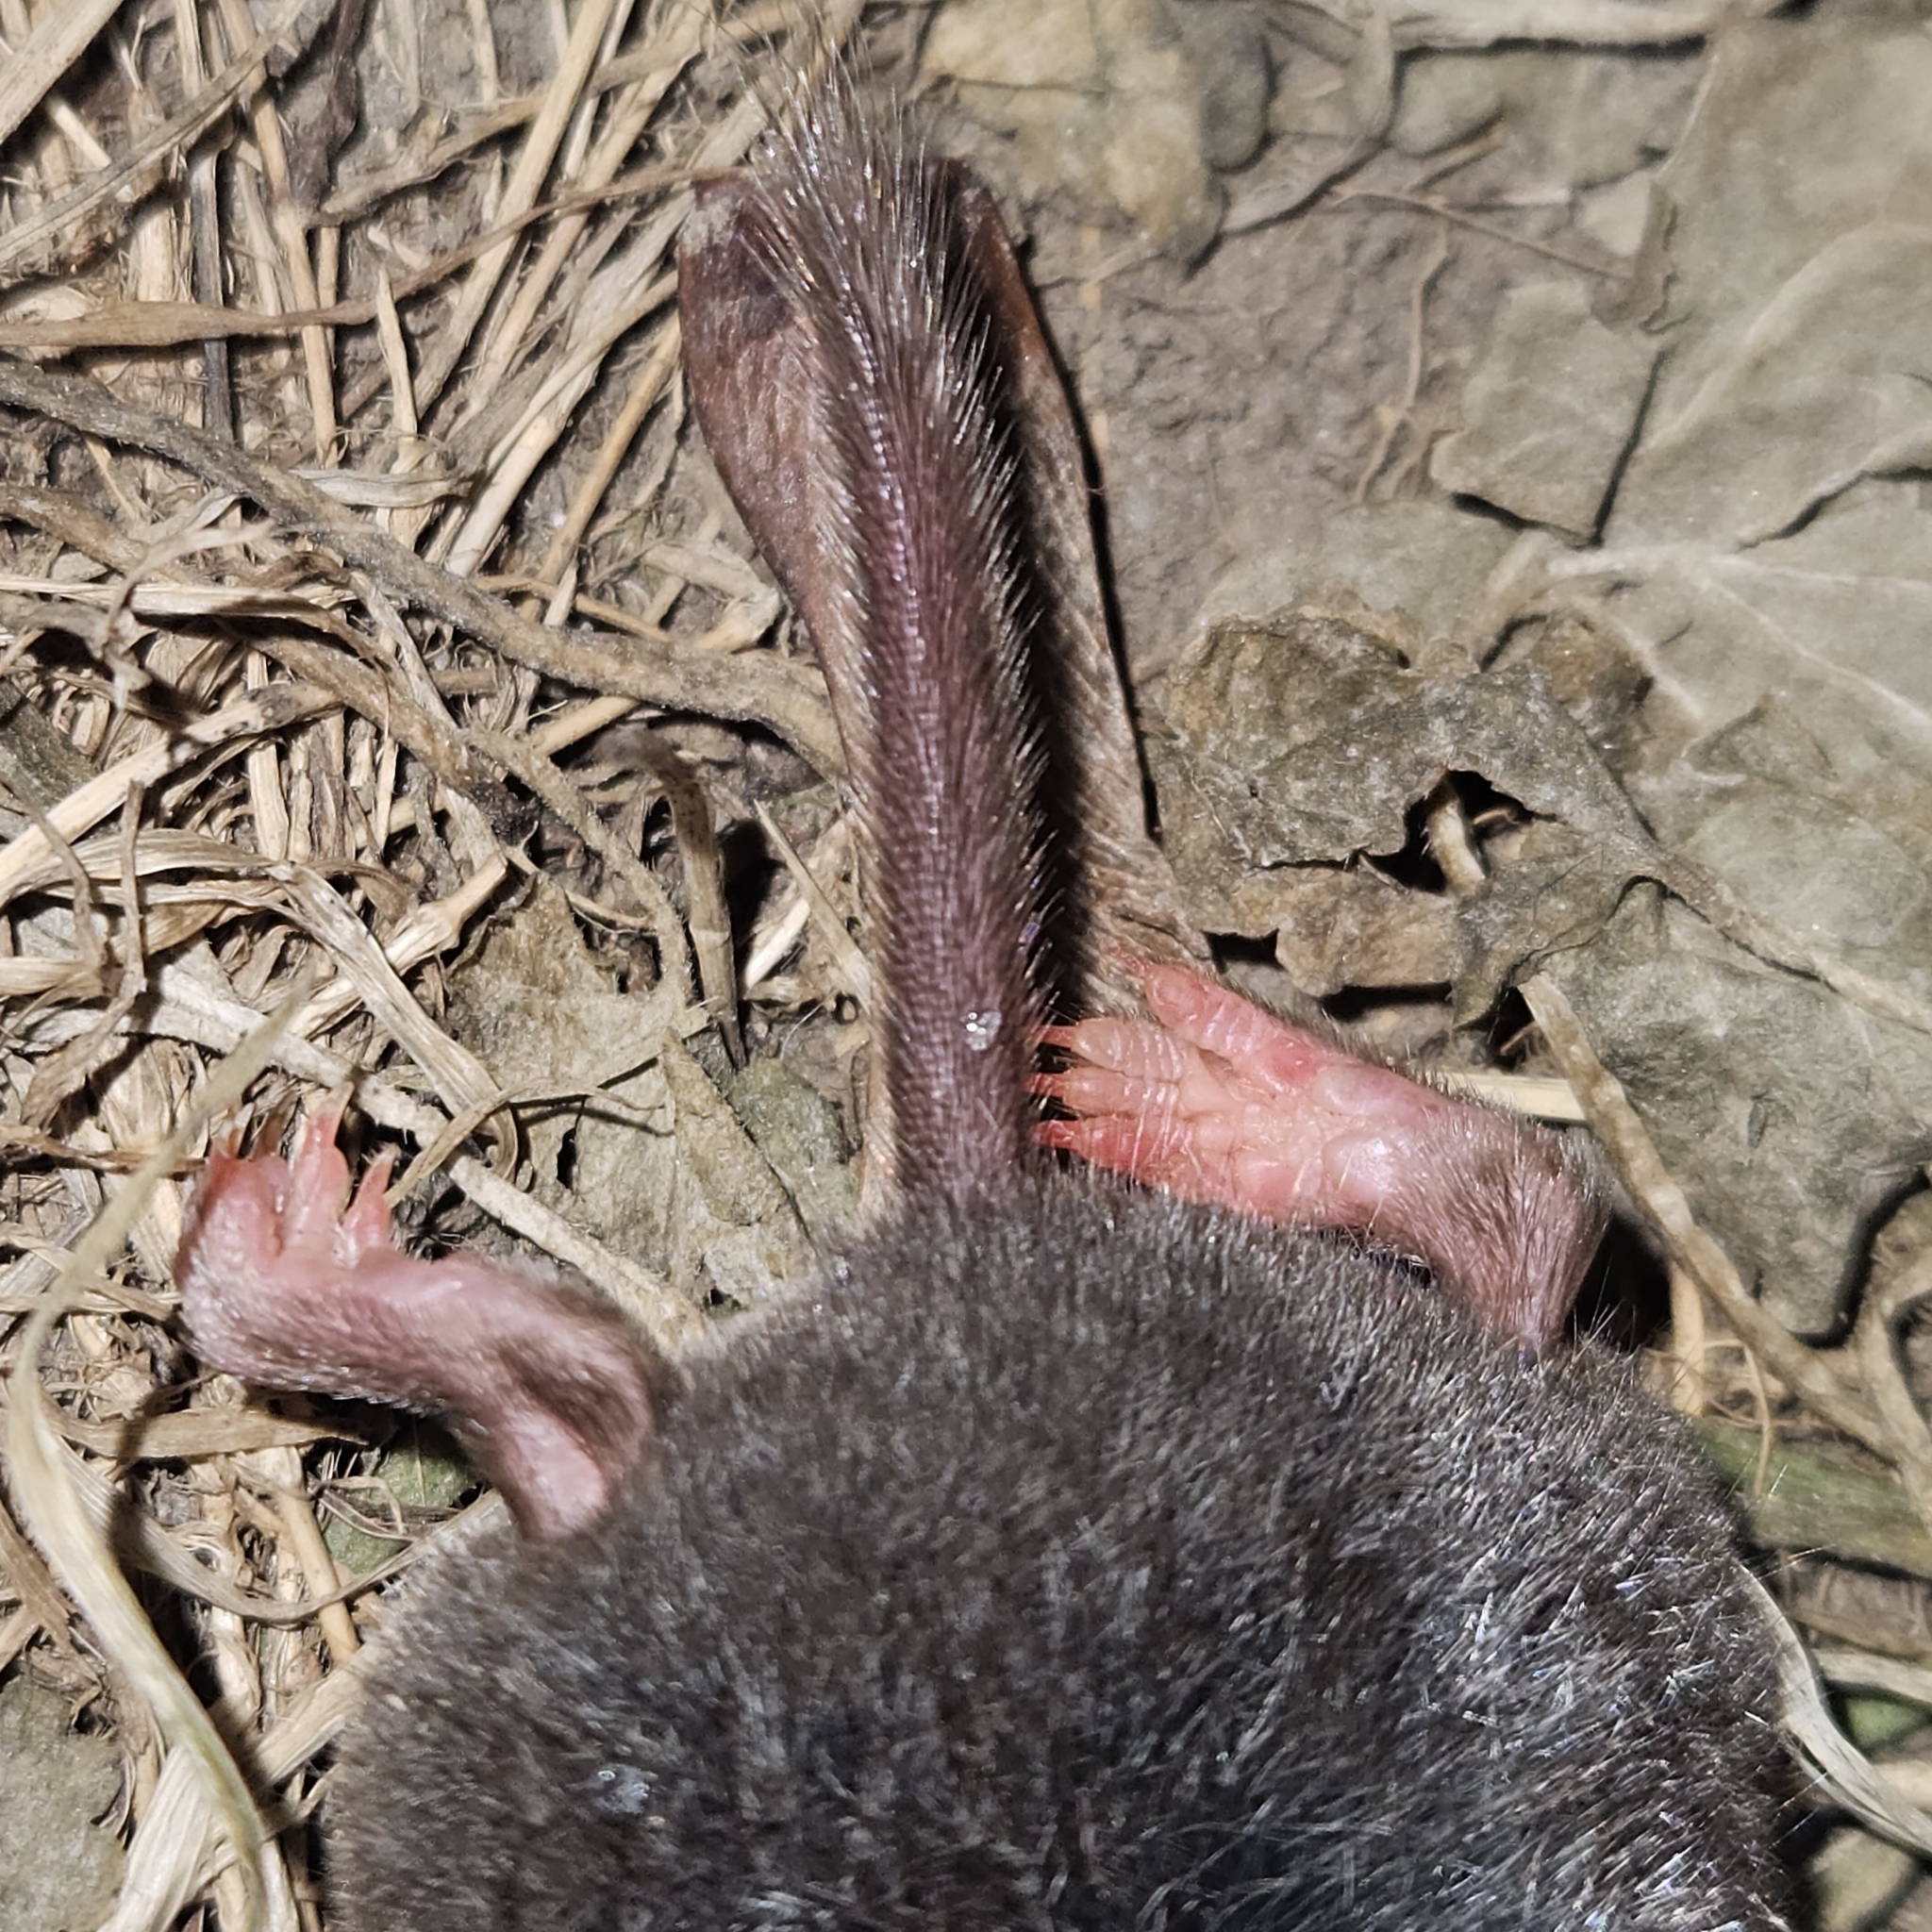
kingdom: Animalia
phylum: Chordata
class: Mammalia
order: Soricomorpha
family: Soricidae
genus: Blarina
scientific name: Blarina brevicauda
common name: Northern short-tailed shrew
